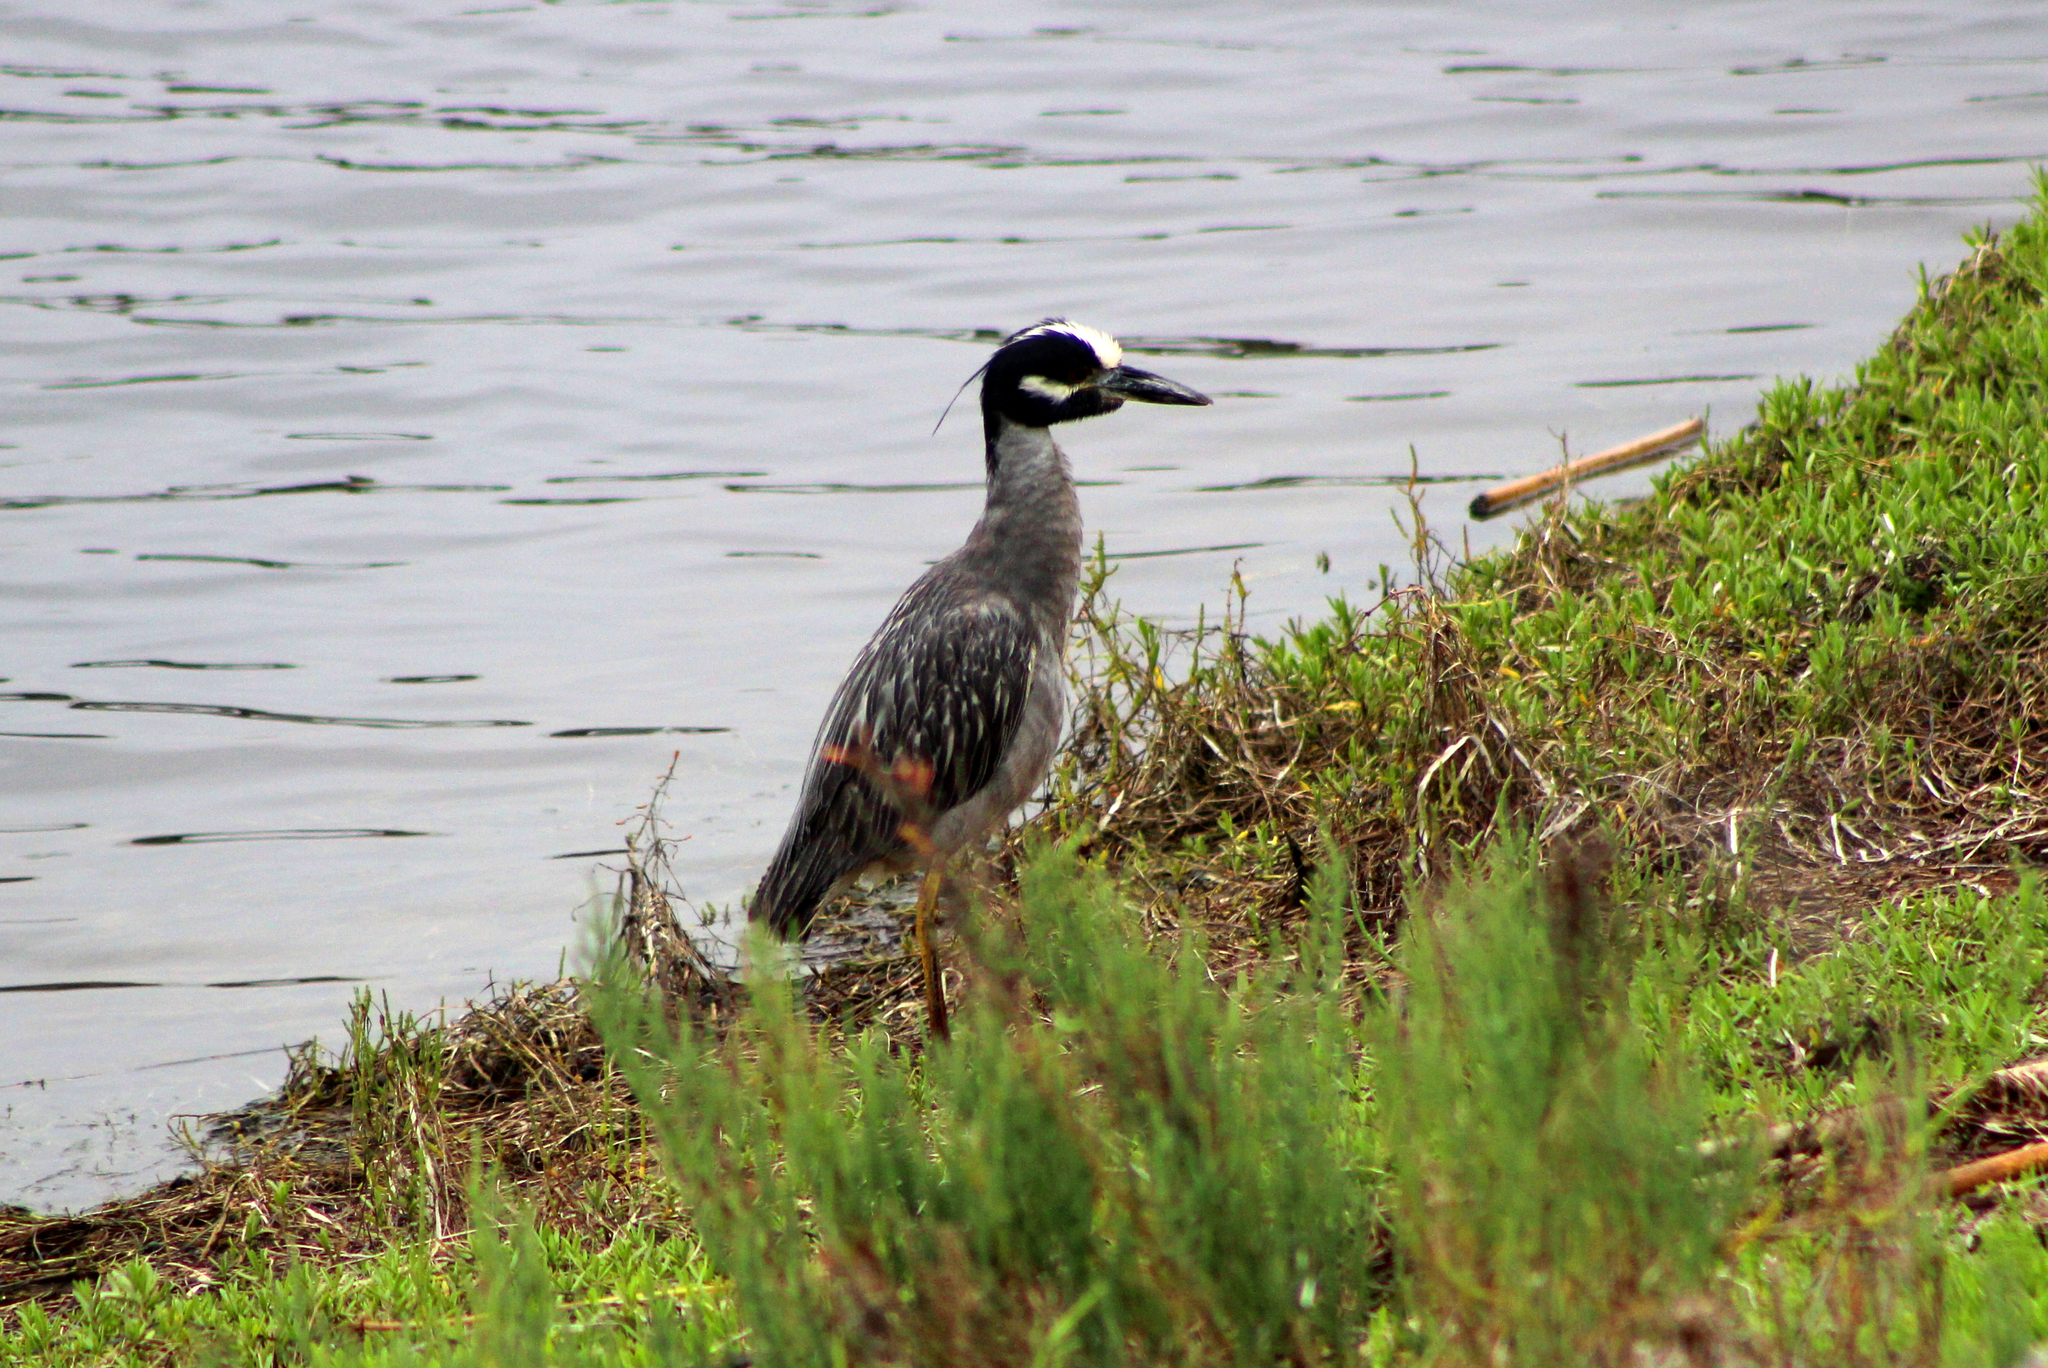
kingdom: Animalia
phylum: Chordata
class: Aves
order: Pelecaniformes
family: Ardeidae
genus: Nyctanassa
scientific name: Nyctanassa violacea
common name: Yellow-crowned night heron
